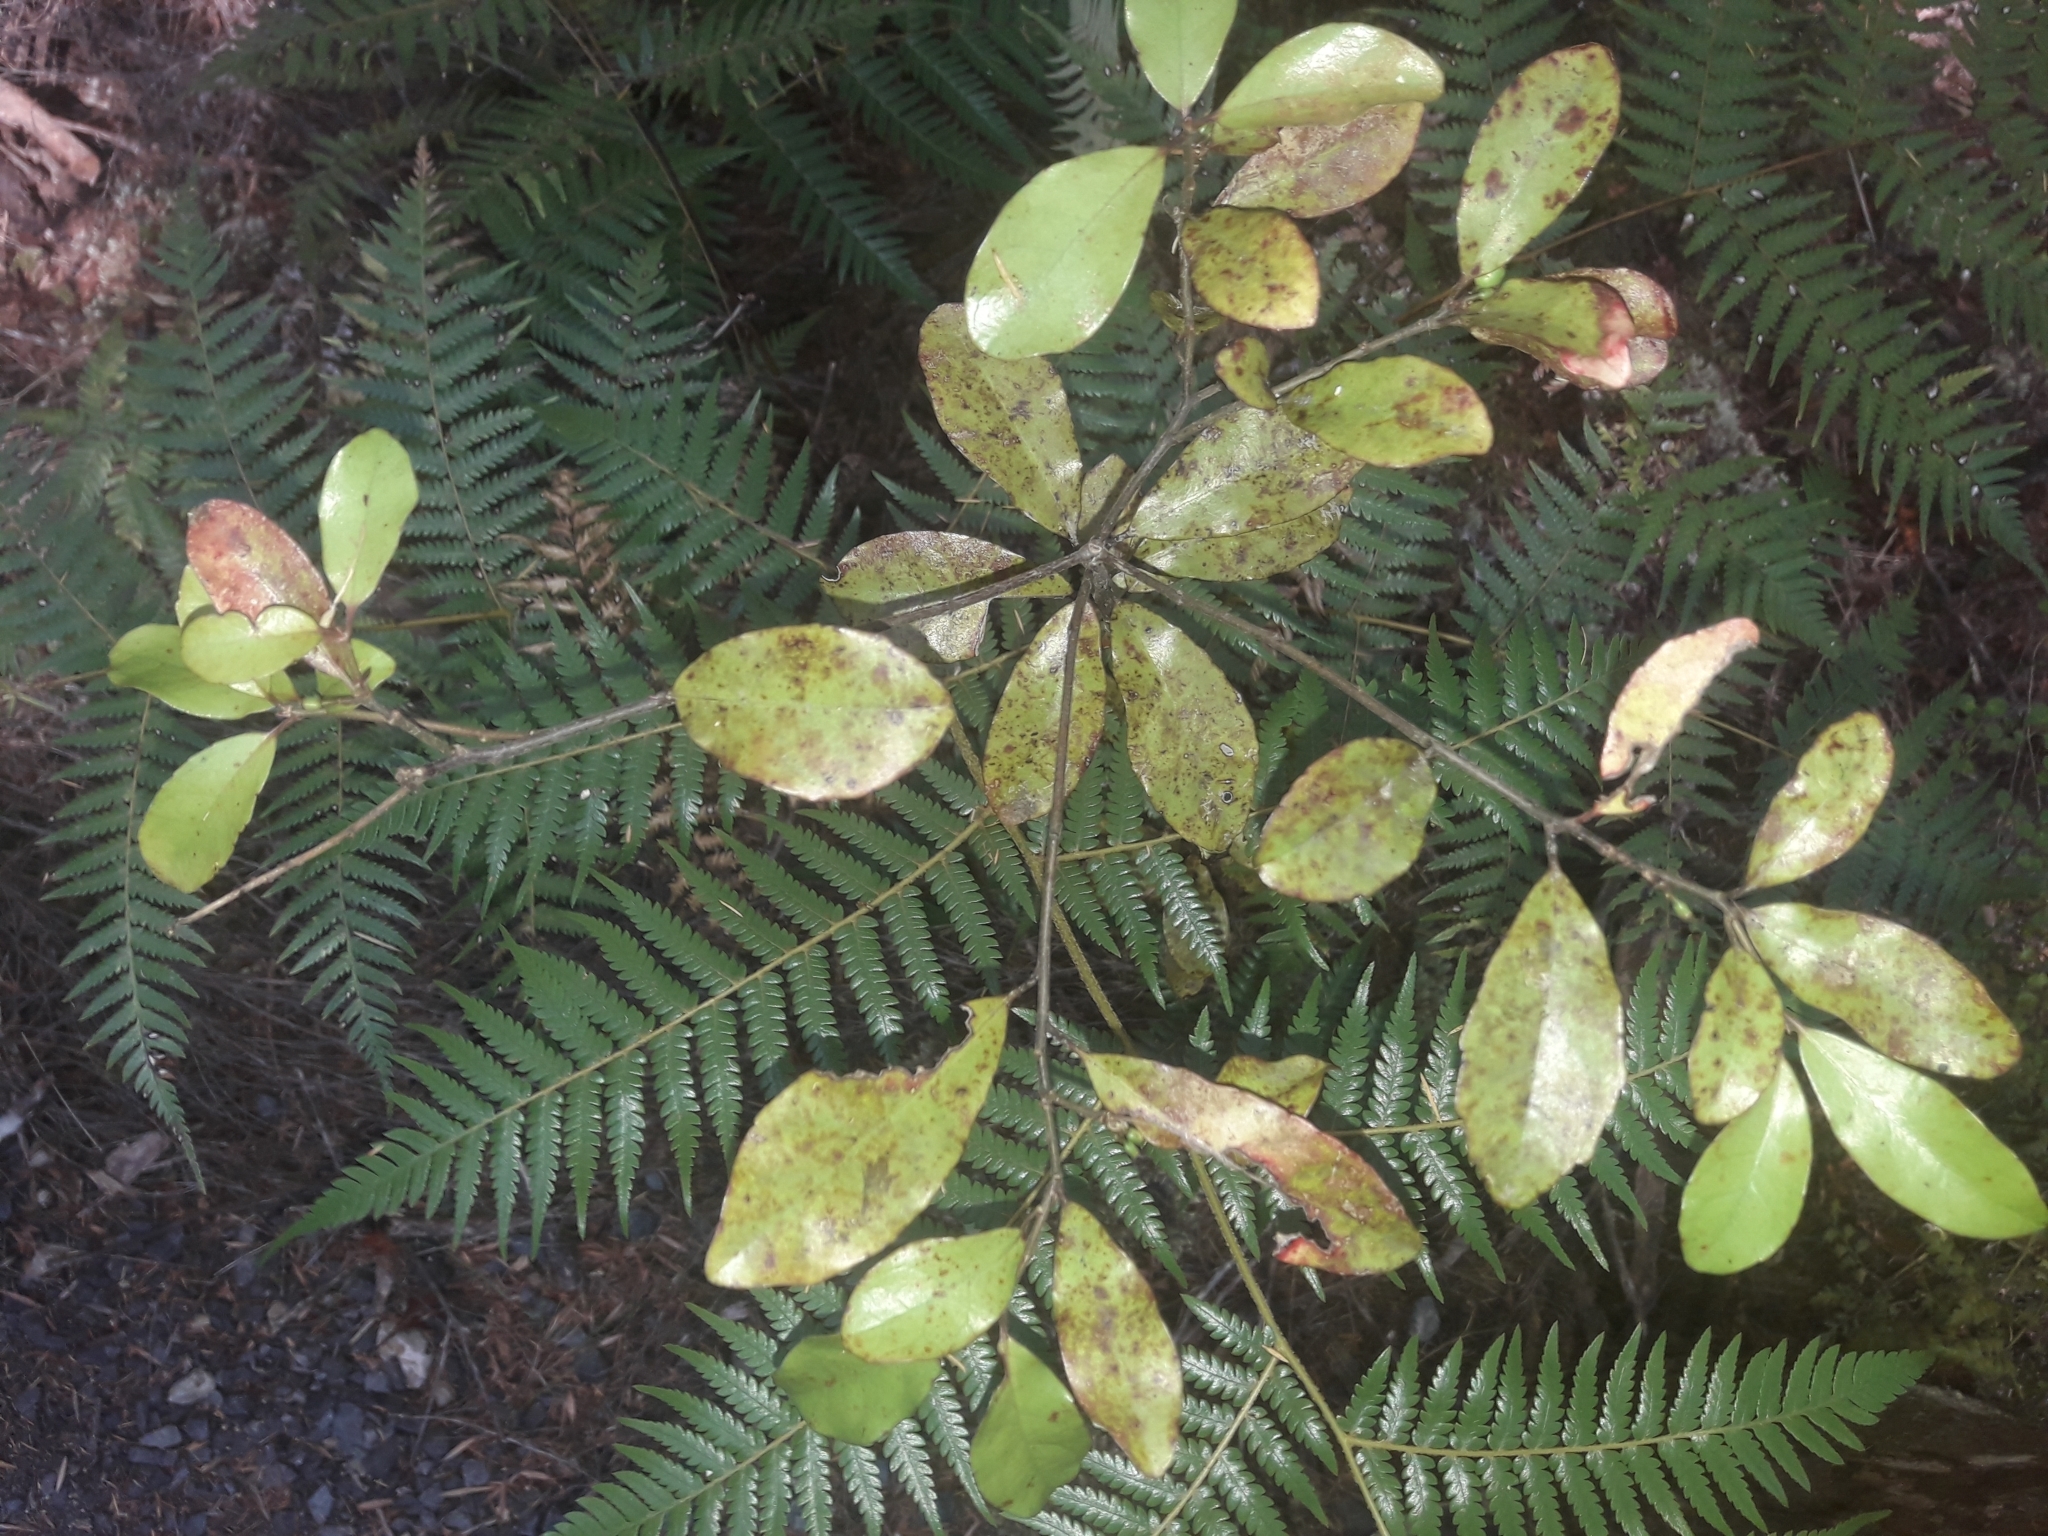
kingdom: Plantae
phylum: Tracheophyta
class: Magnoliopsida
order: Asterales
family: Alseuosmiaceae
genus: Alseuosmia
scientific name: Alseuosmia banksii
